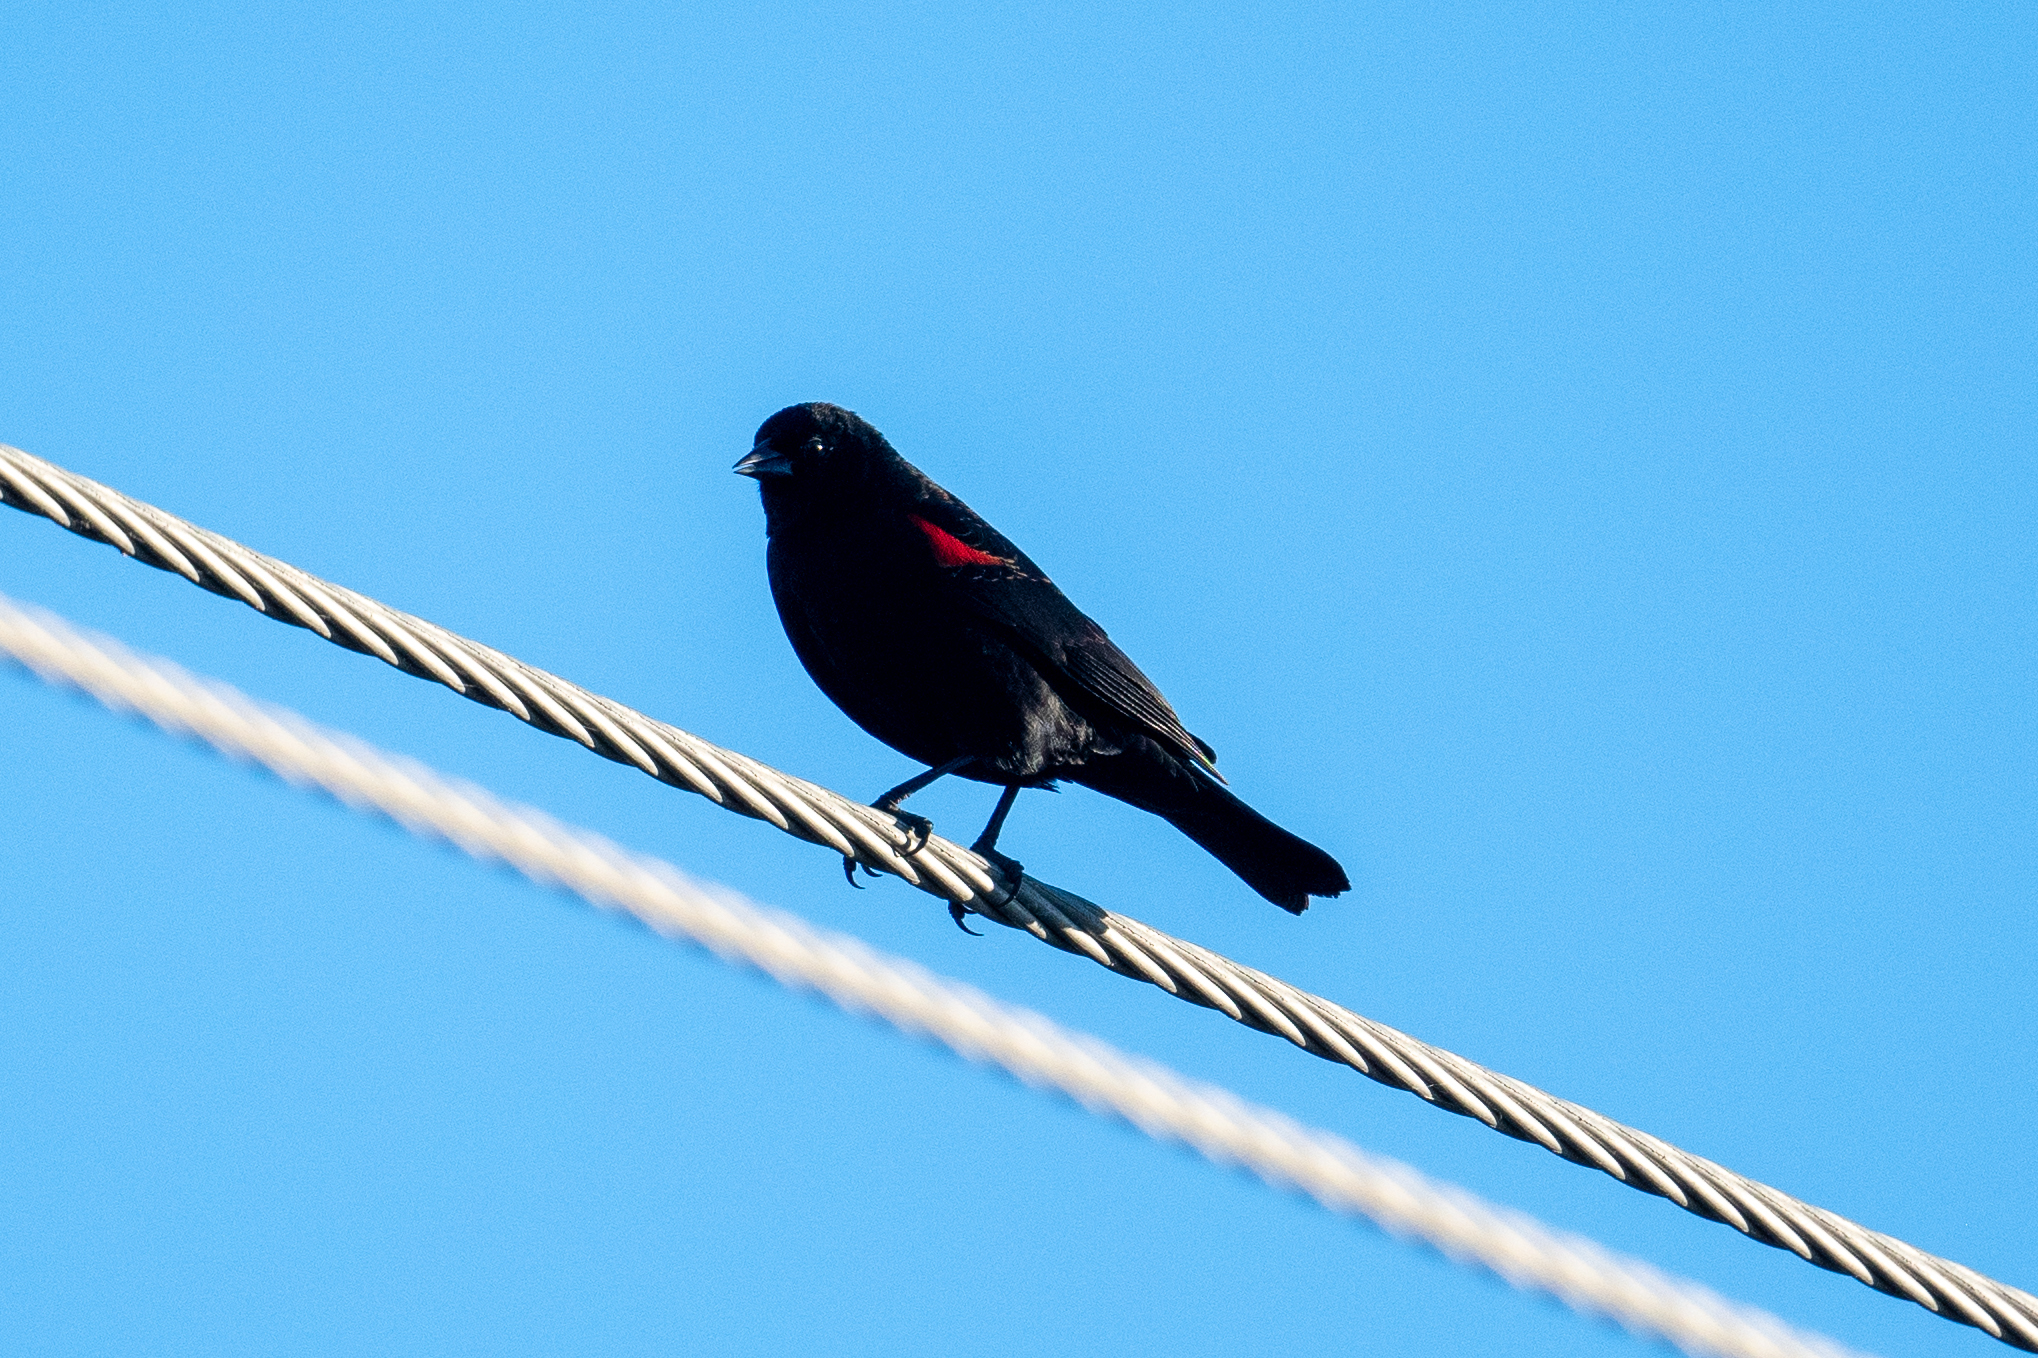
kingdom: Animalia
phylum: Chordata
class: Aves
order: Passeriformes
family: Icteridae
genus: Agelaius
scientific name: Agelaius phoeniceus
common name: Red-winged blackbird
